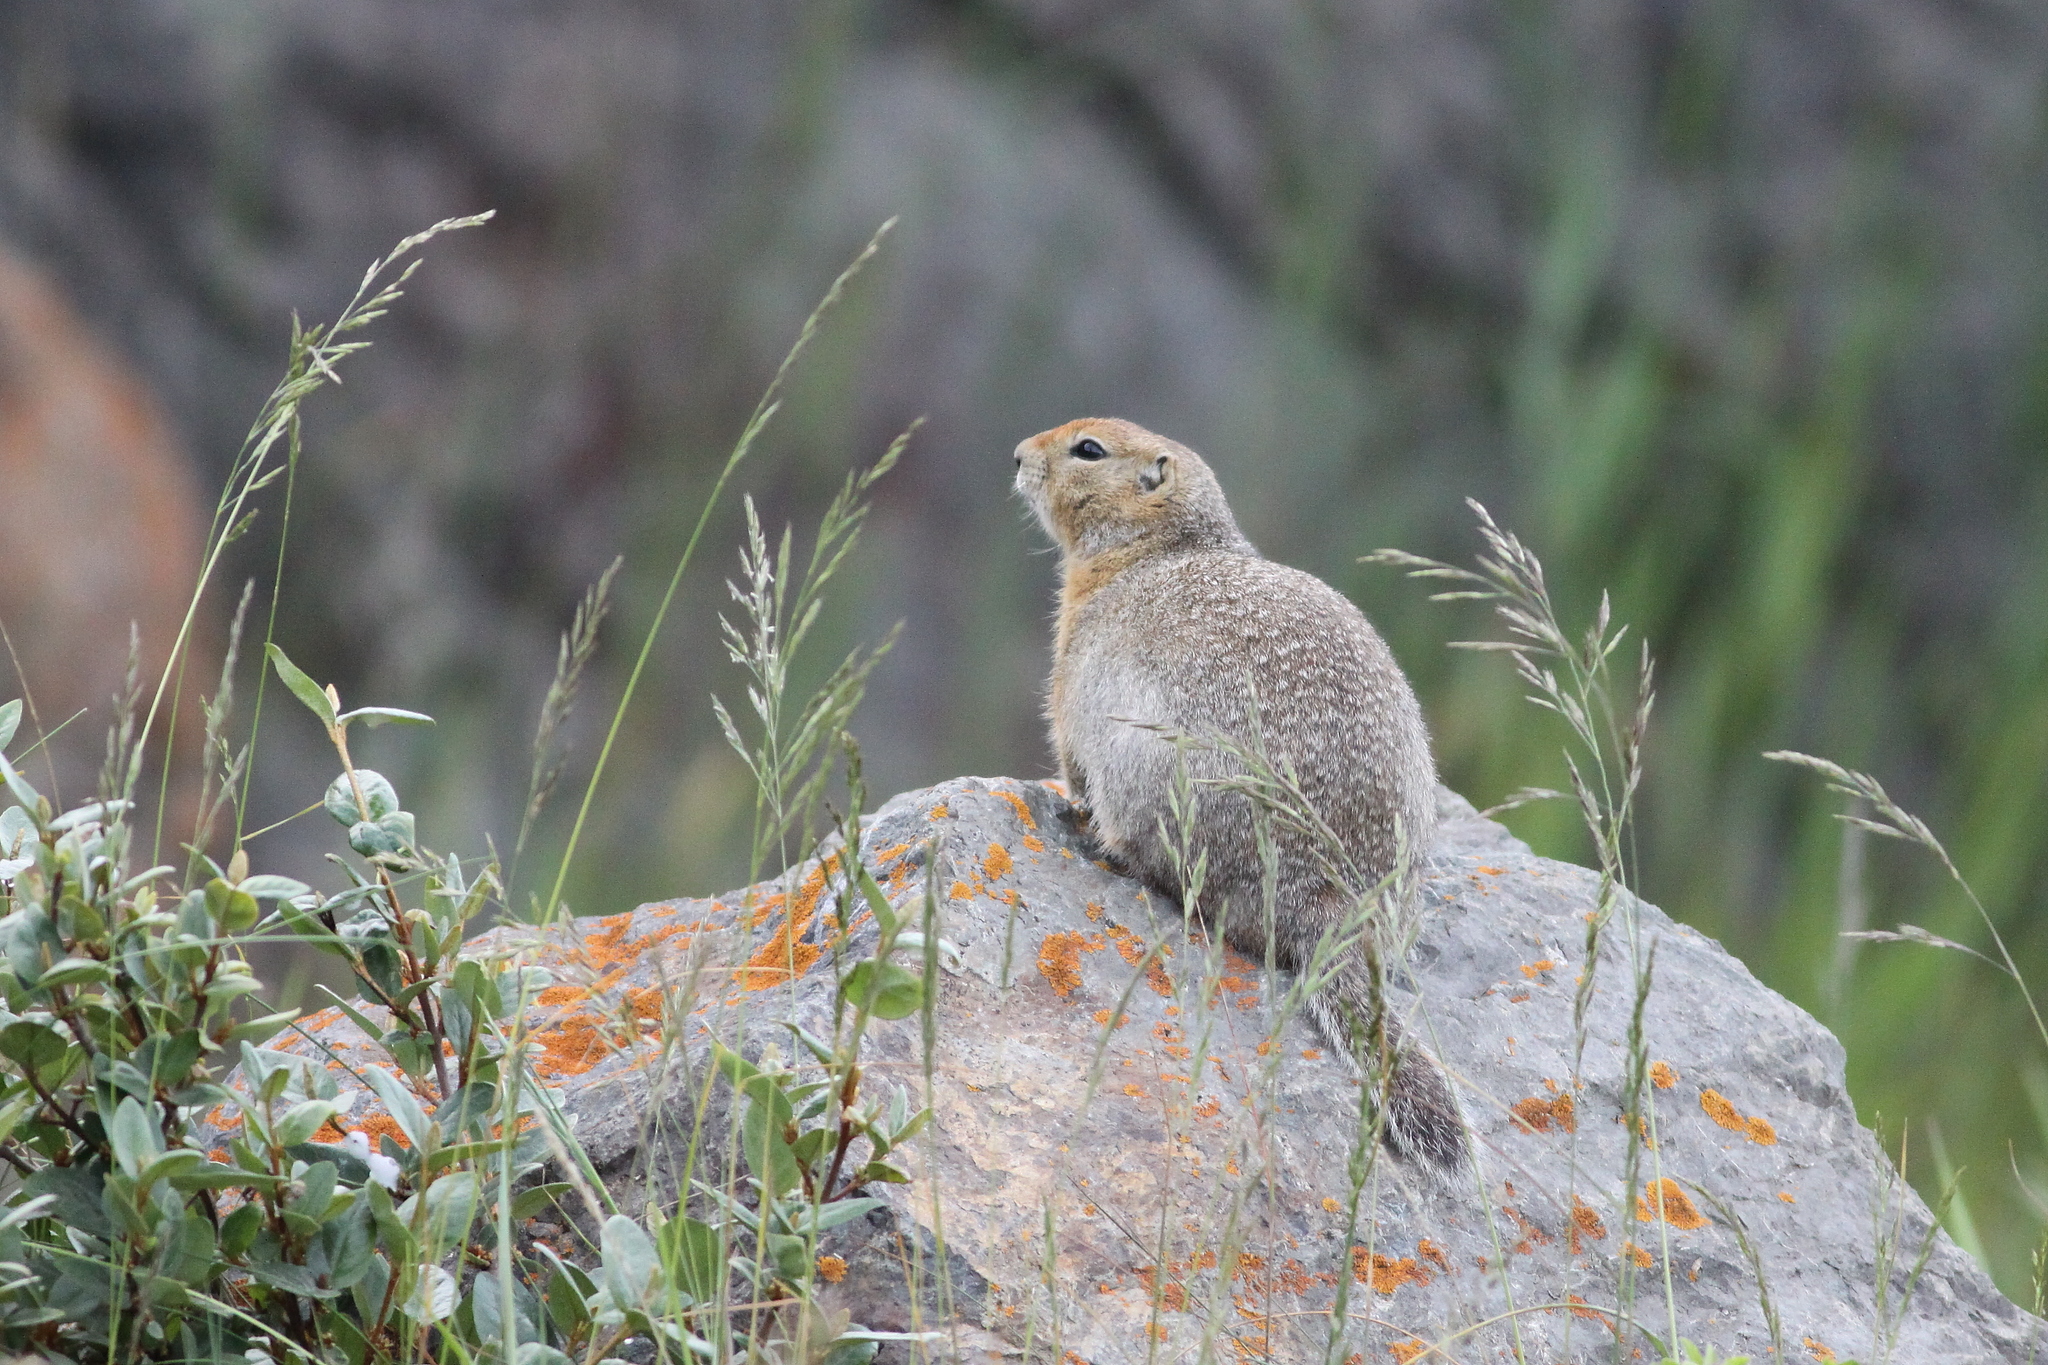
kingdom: Animalia
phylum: Chordata
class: Mammalia
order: Rodentia
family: Sciuridae
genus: Urocitellus
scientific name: Urocitellus parryii
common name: Arctic ground squirrel
